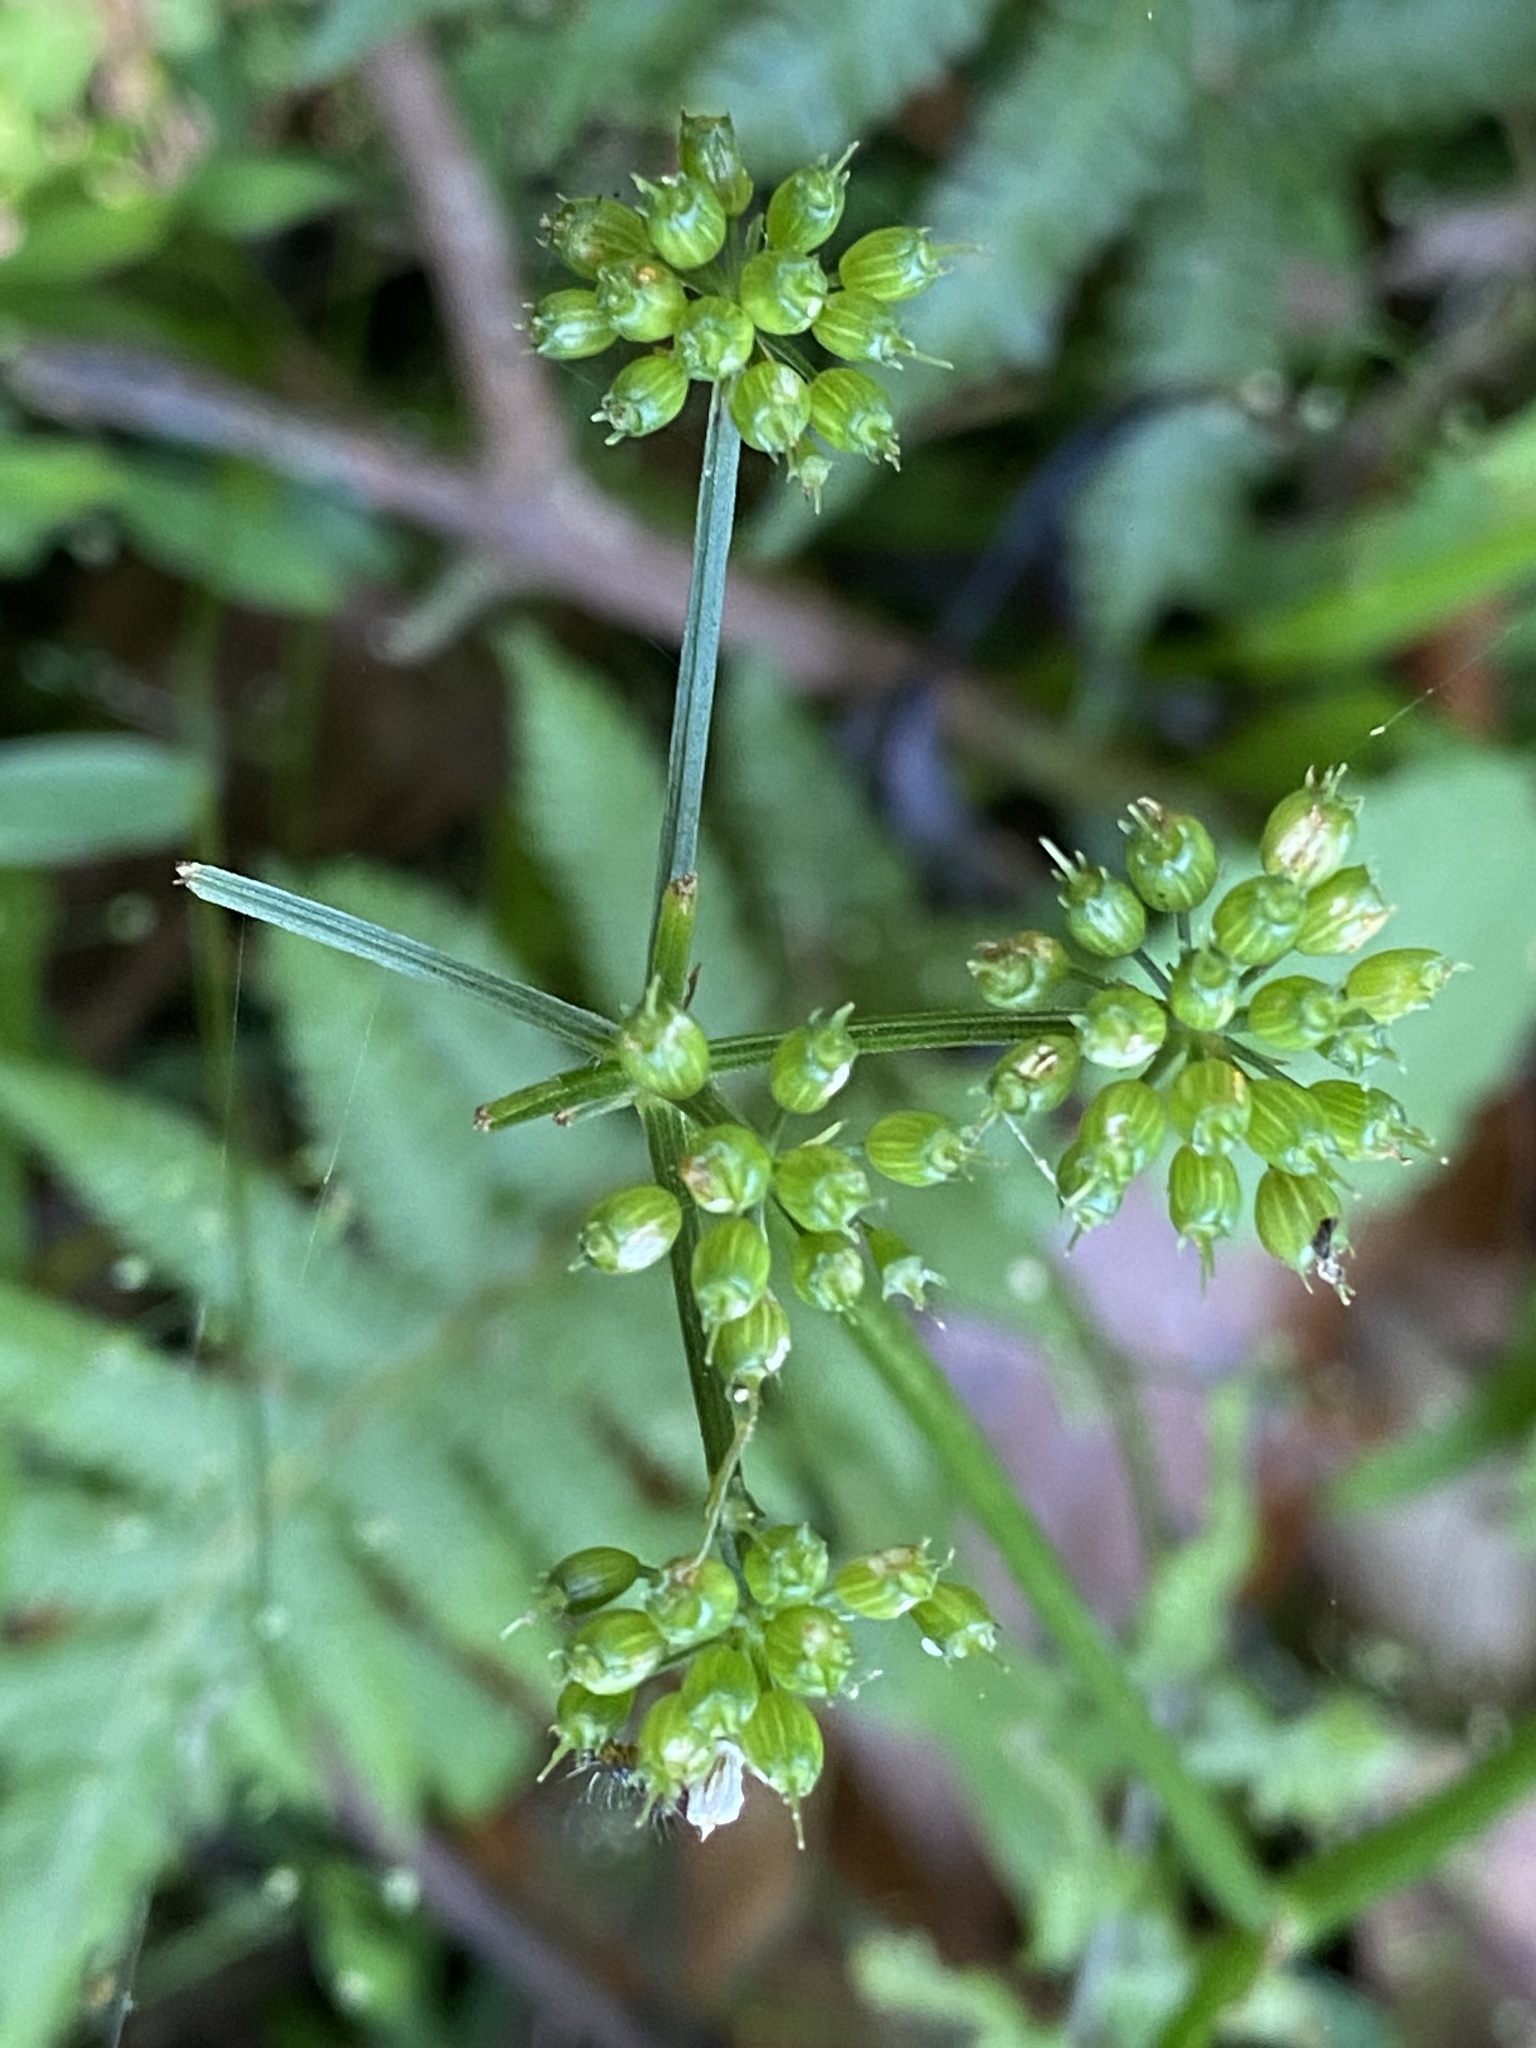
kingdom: Plantae
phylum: Tracheophyta
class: Magnoliopsida
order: Apiales
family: Apiaceae
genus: Oenanthe
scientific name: Oenanthe javanica
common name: Java water-dropwort
